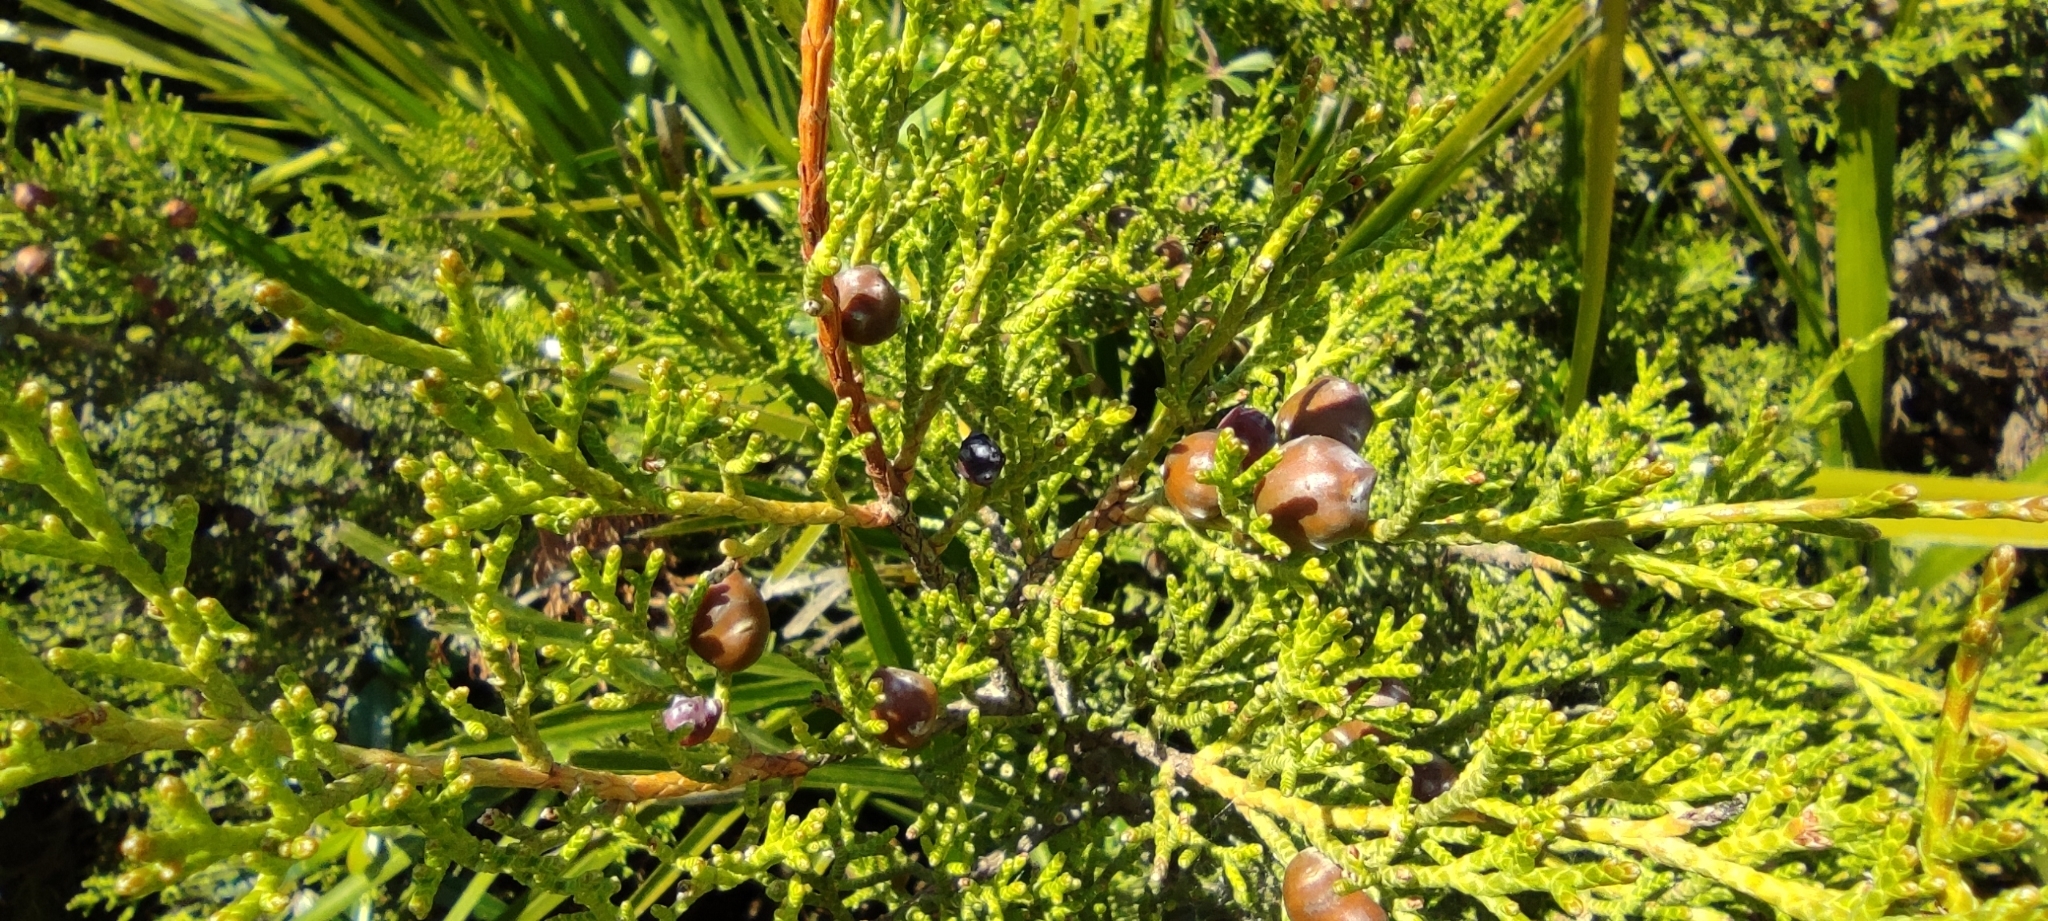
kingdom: Plantae
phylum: Tracheophyta
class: Pinopsida
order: Pinales
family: Cupressaceae
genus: Juniperus
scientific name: Juniperus phoenicea
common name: Phoenician juniper
